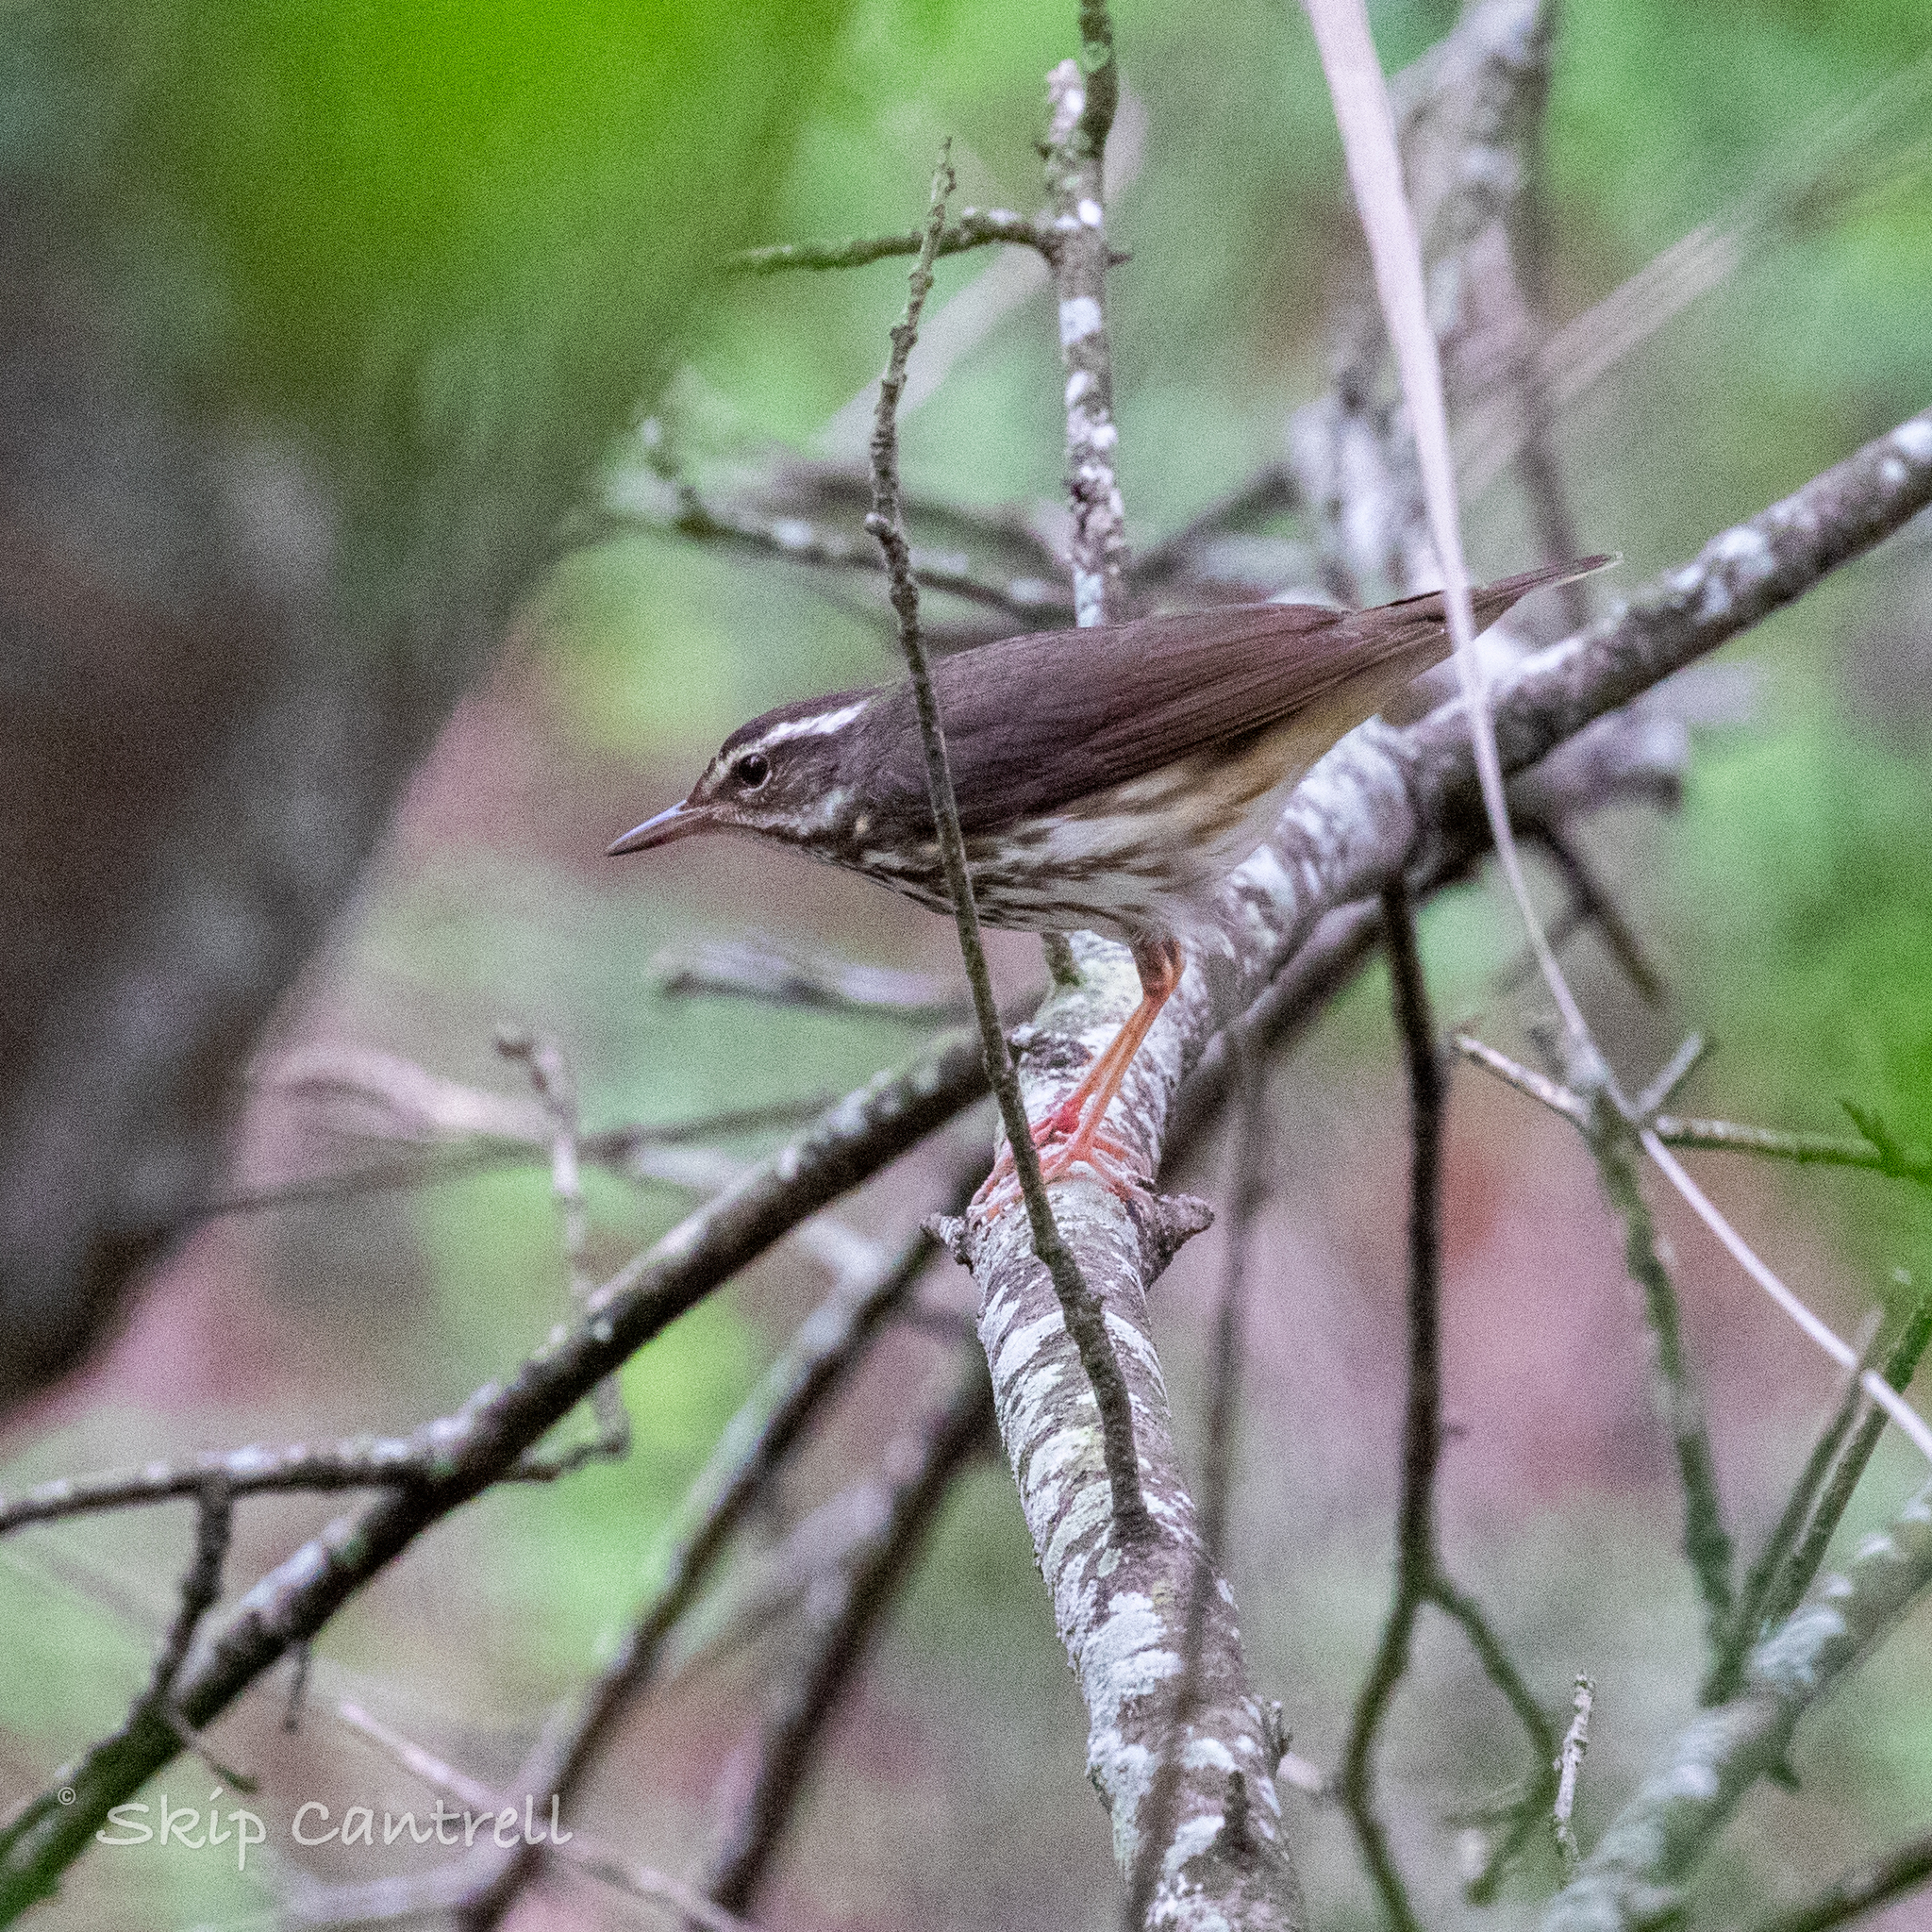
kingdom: Animalia
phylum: Chordata
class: Aves
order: Passeriformes
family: Parulidae
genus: Parkesia
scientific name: Parkesia motacilla
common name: Louisiana waterthrush
